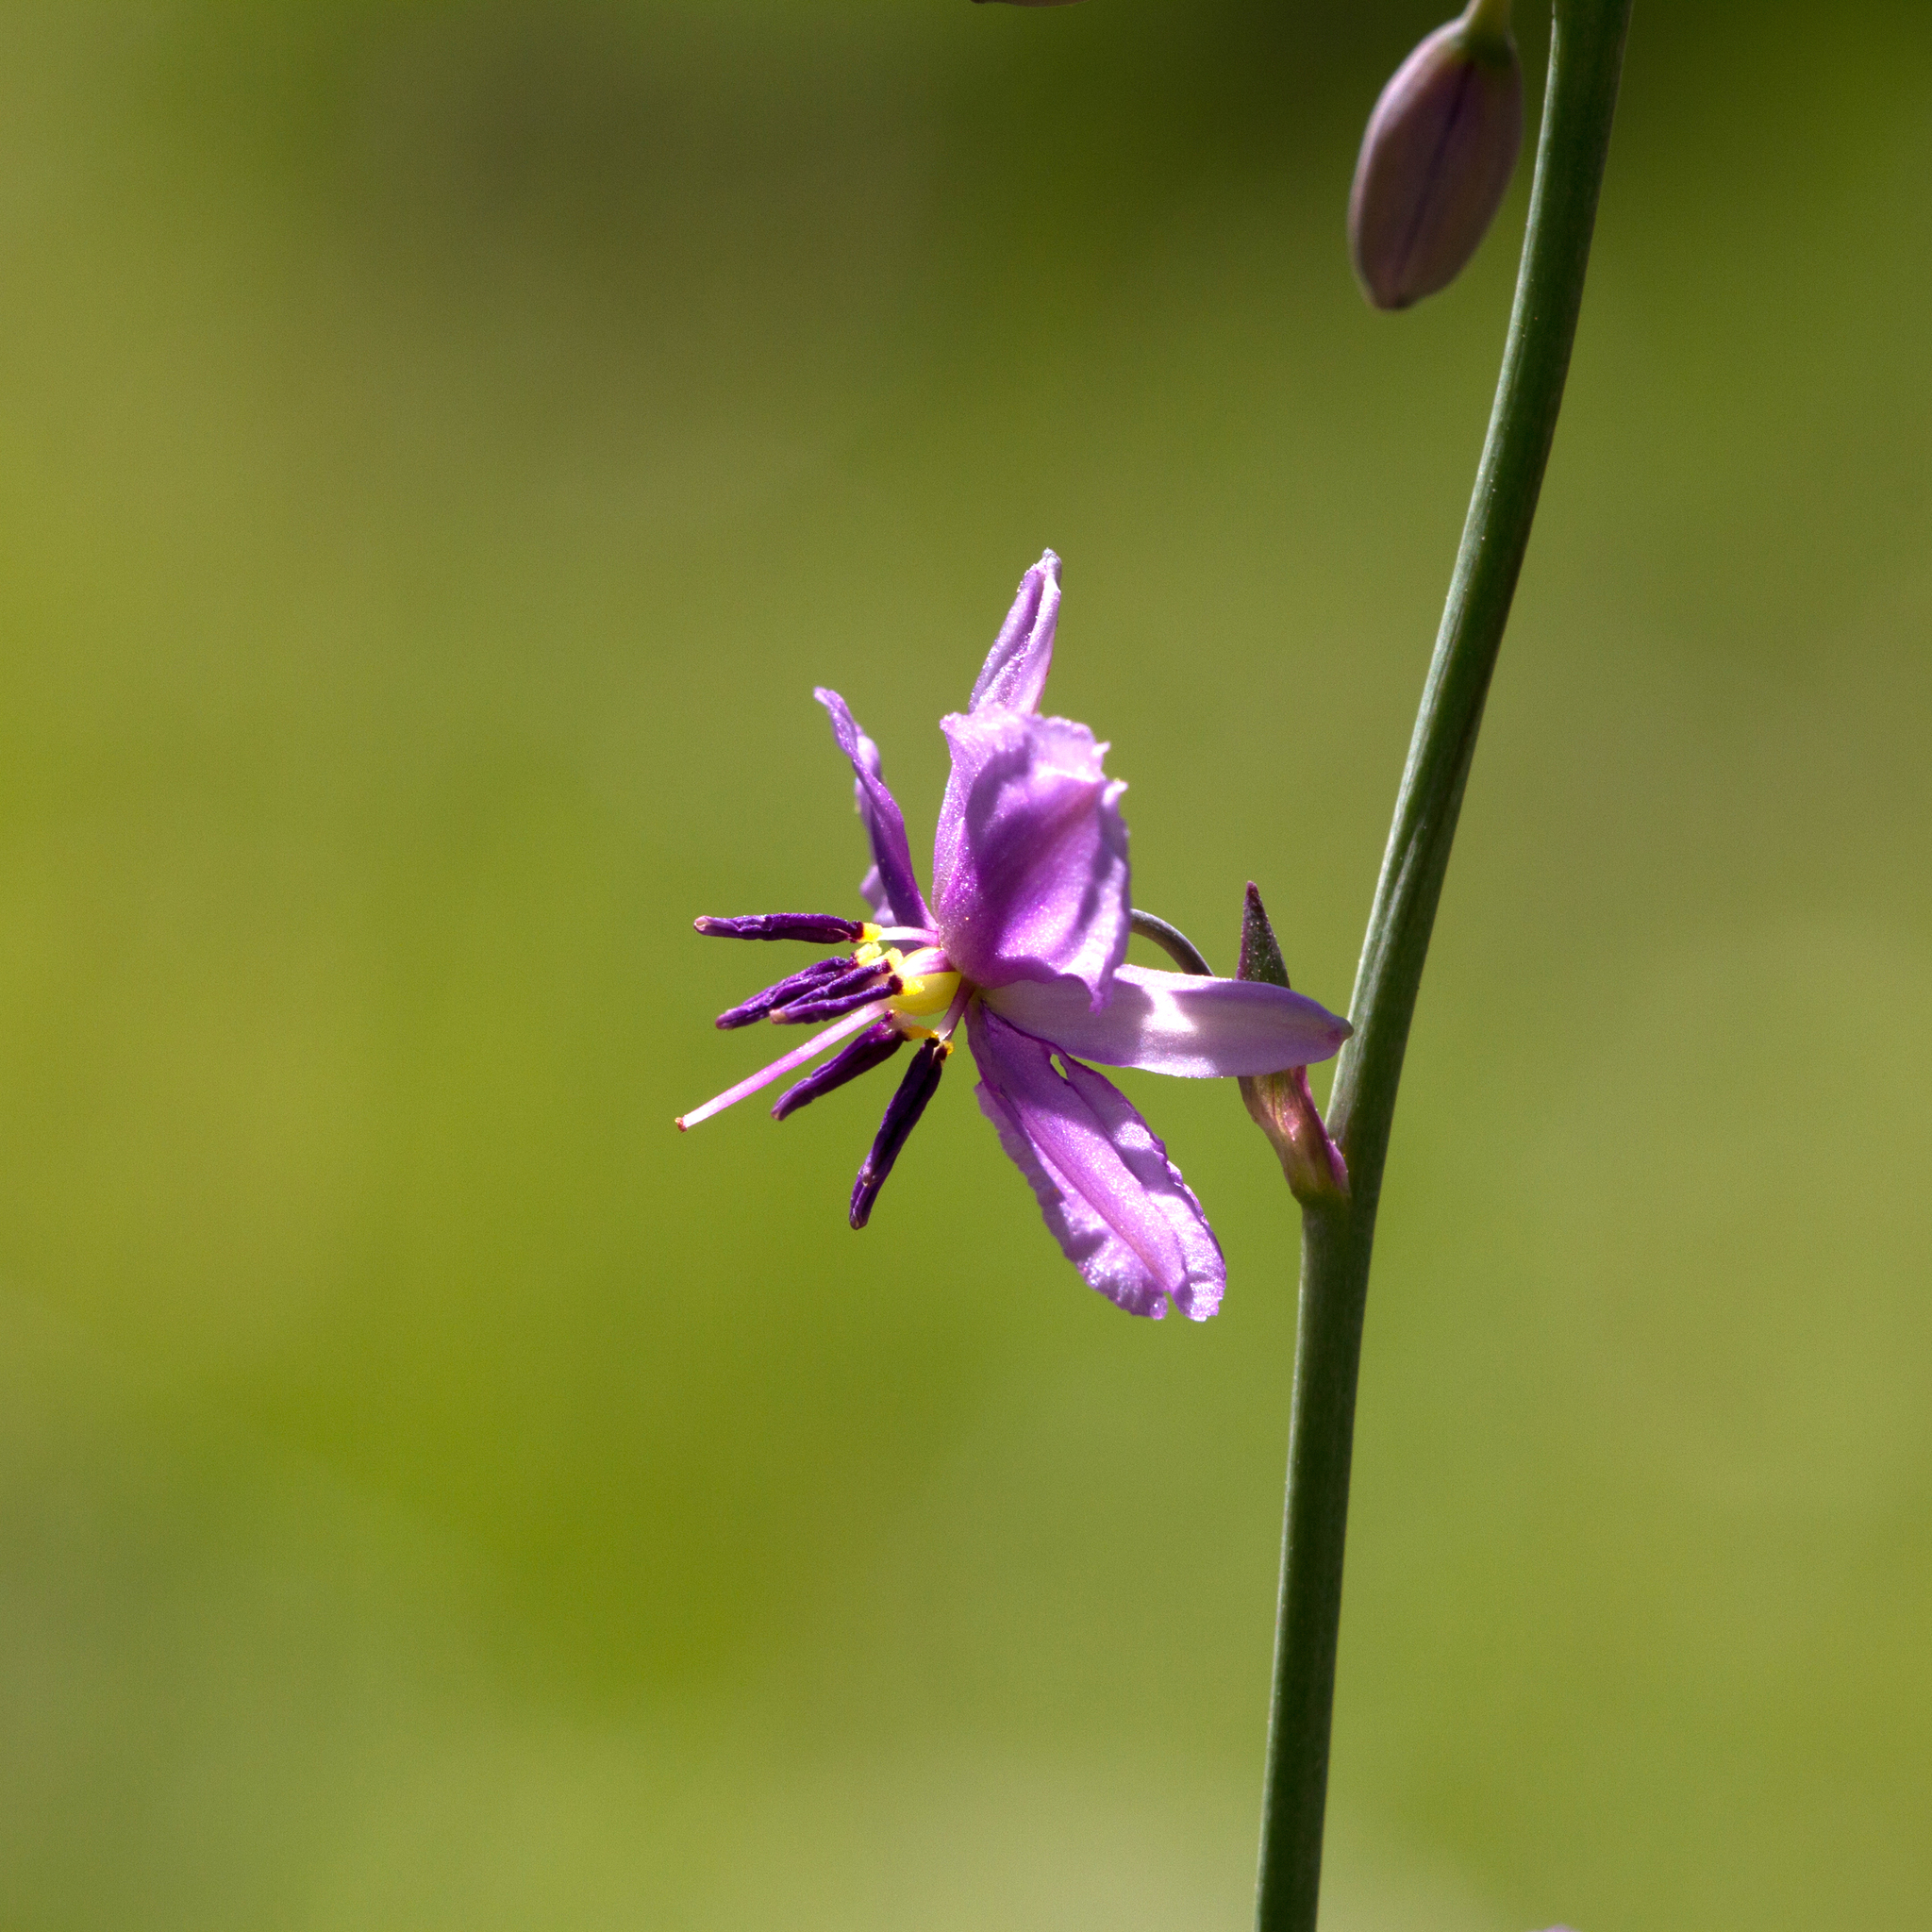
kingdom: Plantae
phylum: Tracheophyta
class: Liliopsida
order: Asparagales
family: Asparagaceae
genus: Arthropodium
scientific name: Arthropodium strictum
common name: Chocolate-lily
